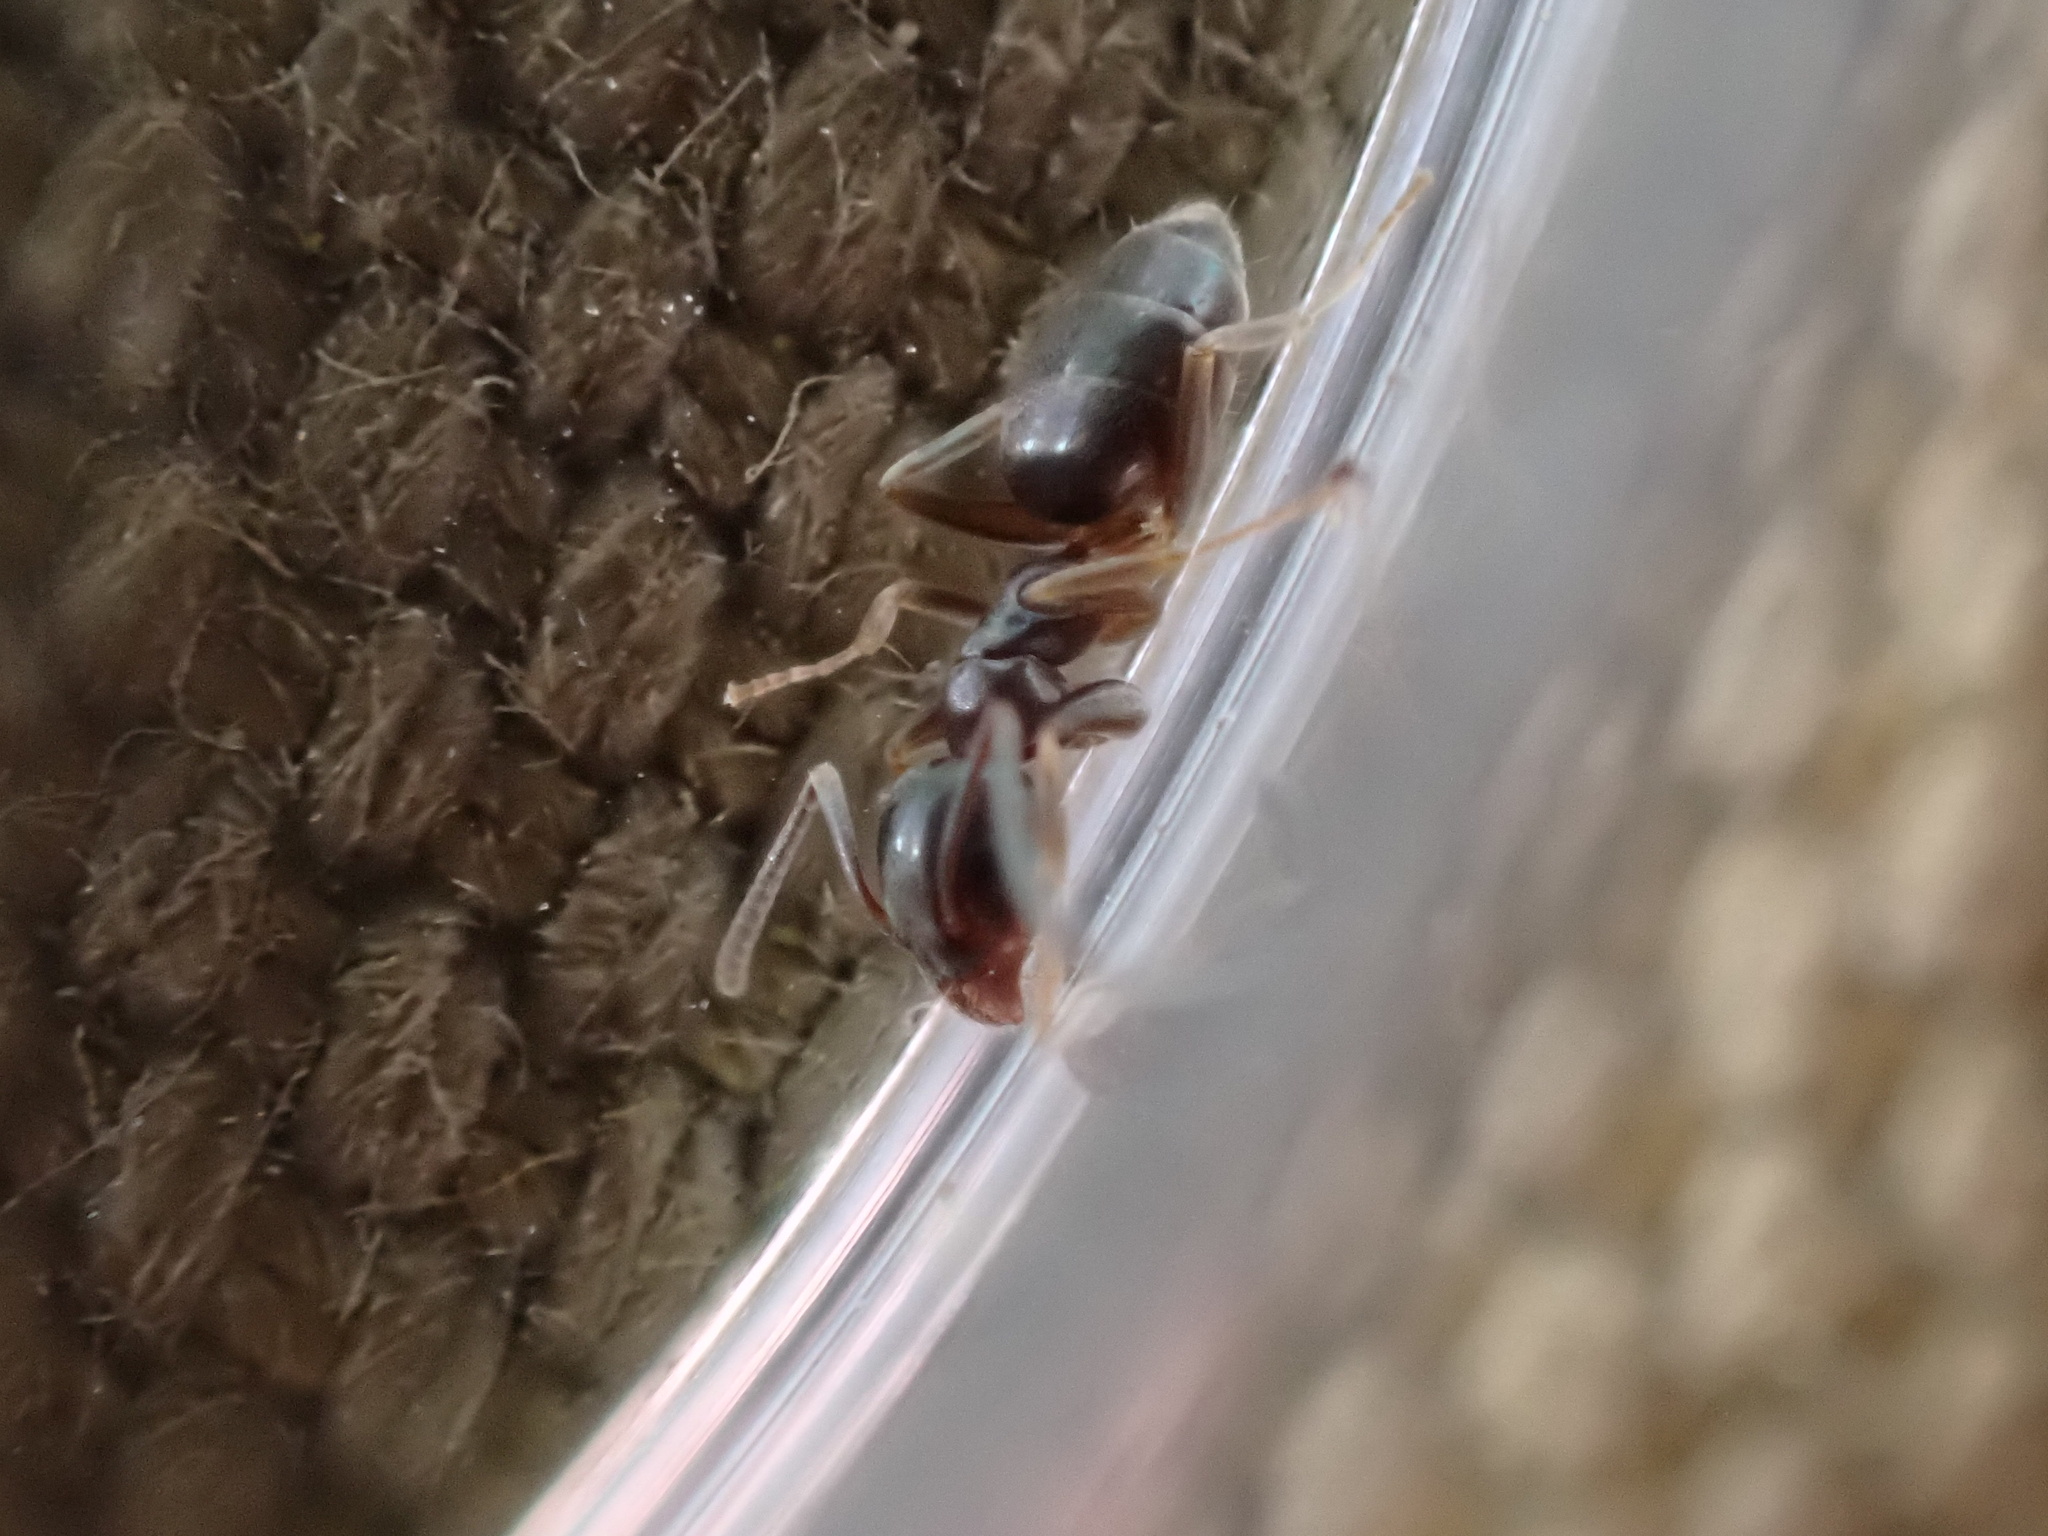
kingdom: Animalia
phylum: Arthropoda
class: Insecta
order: Hymenoptera
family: Formicidae
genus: Tapinoma
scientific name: Tapinoma sessile
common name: Odorous house ant
